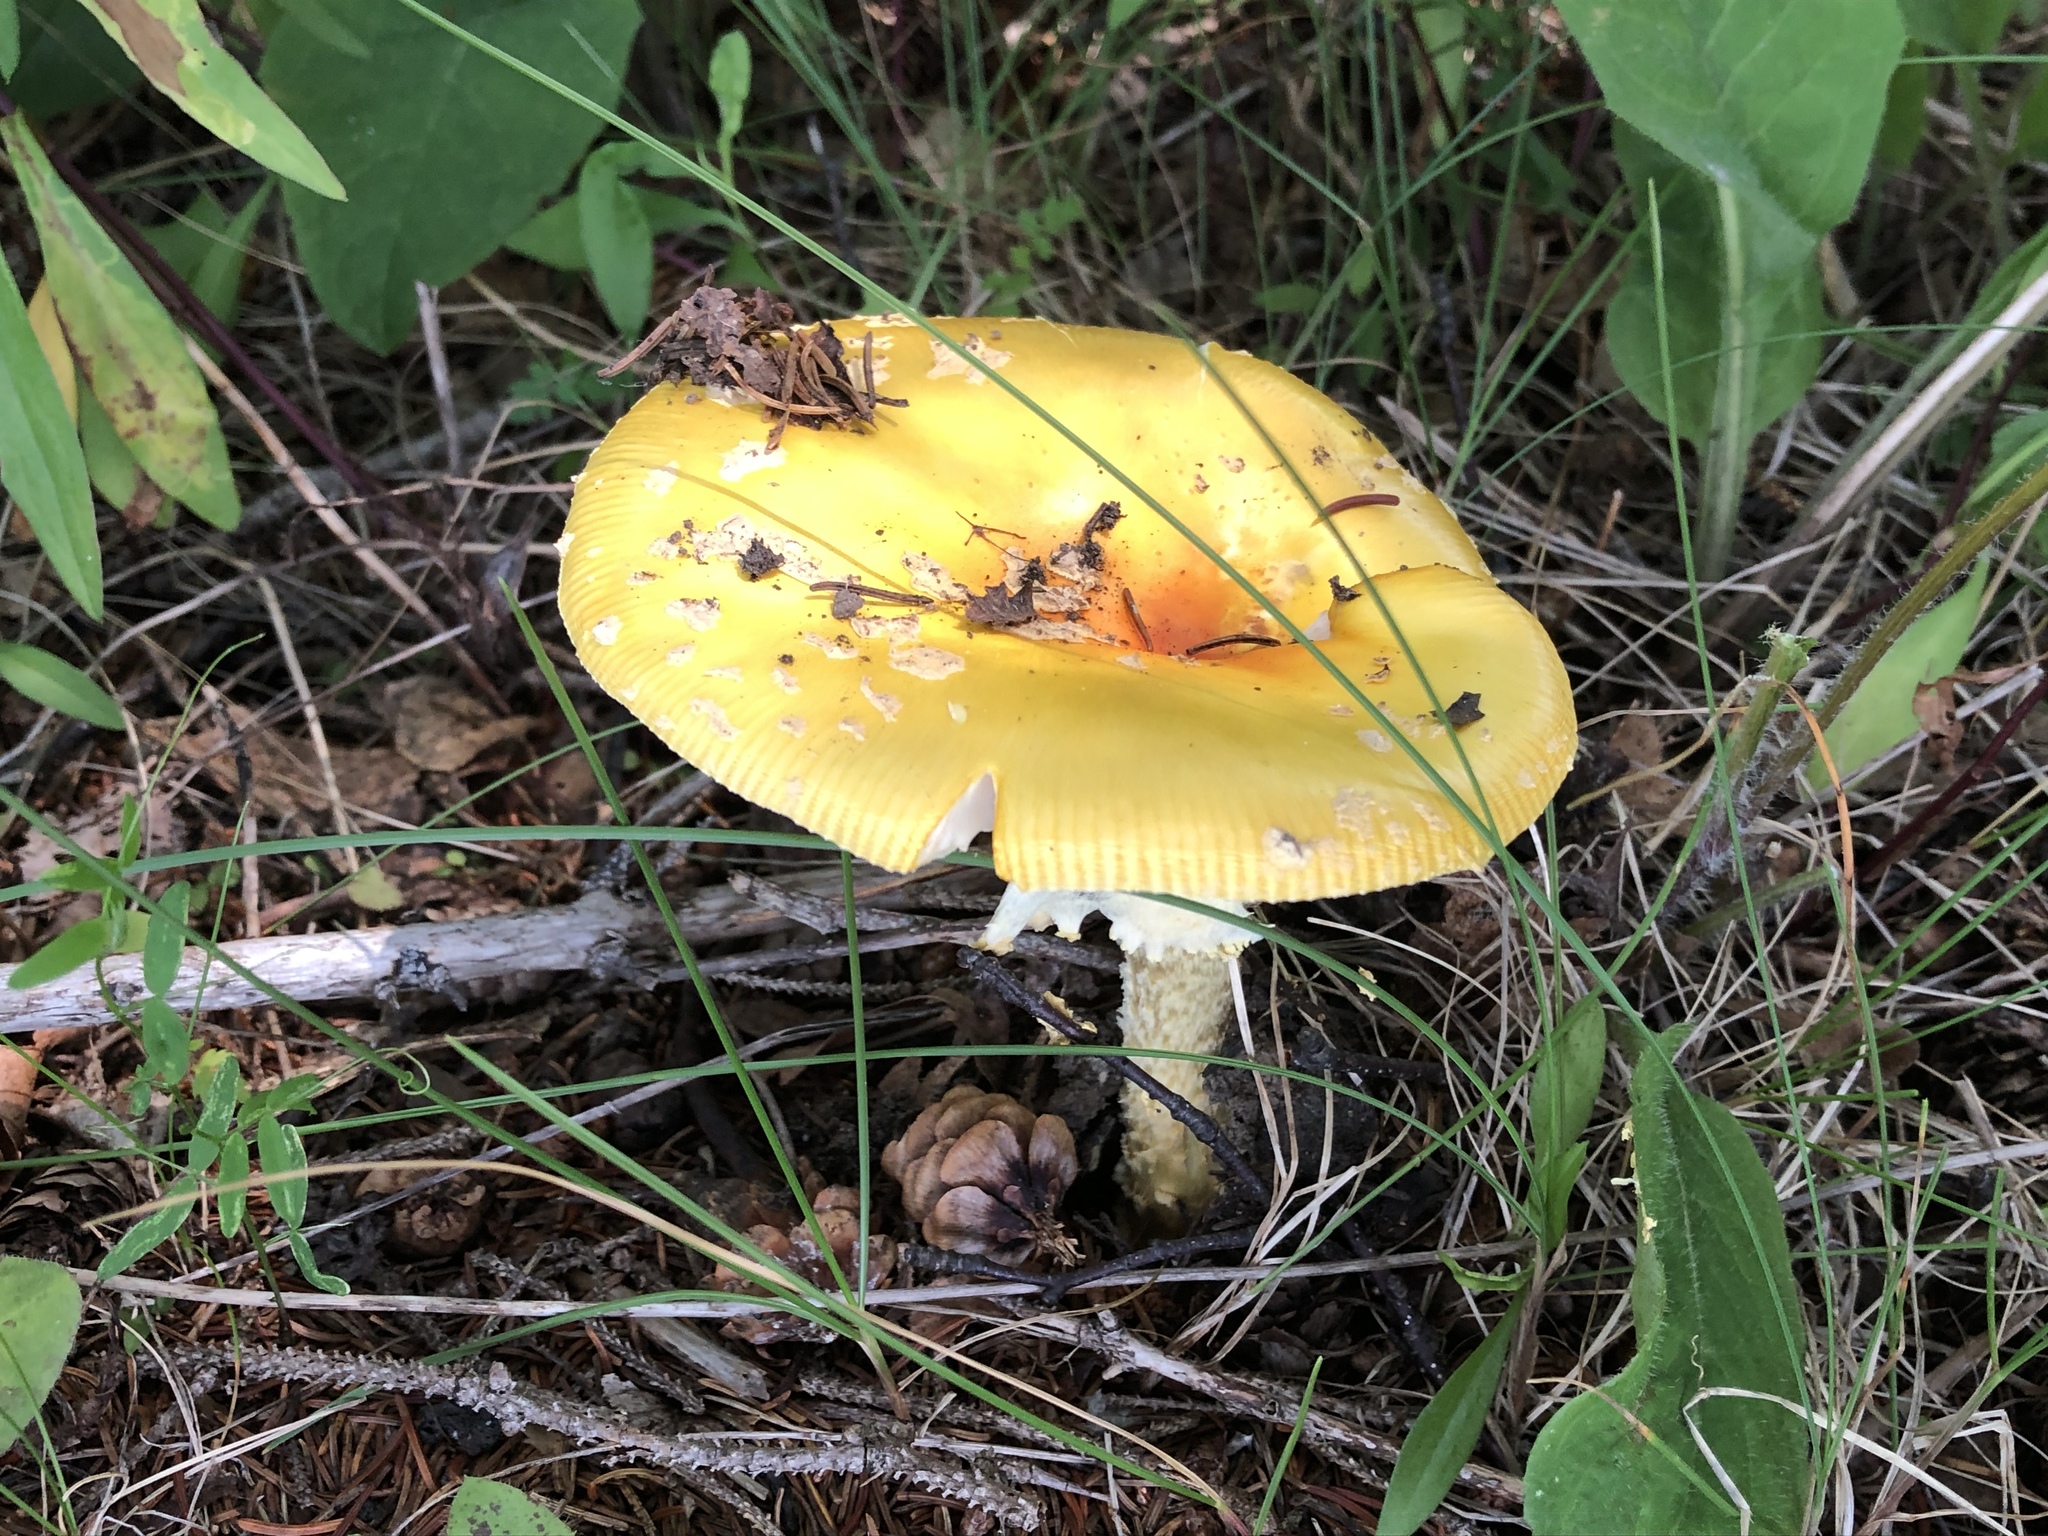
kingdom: Fungi
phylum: Basidiomycota
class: Agaricomycetes
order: Agaricales
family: Amanitaceae
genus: Amanita
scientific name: Amanita muscaria
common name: Fly agaric
